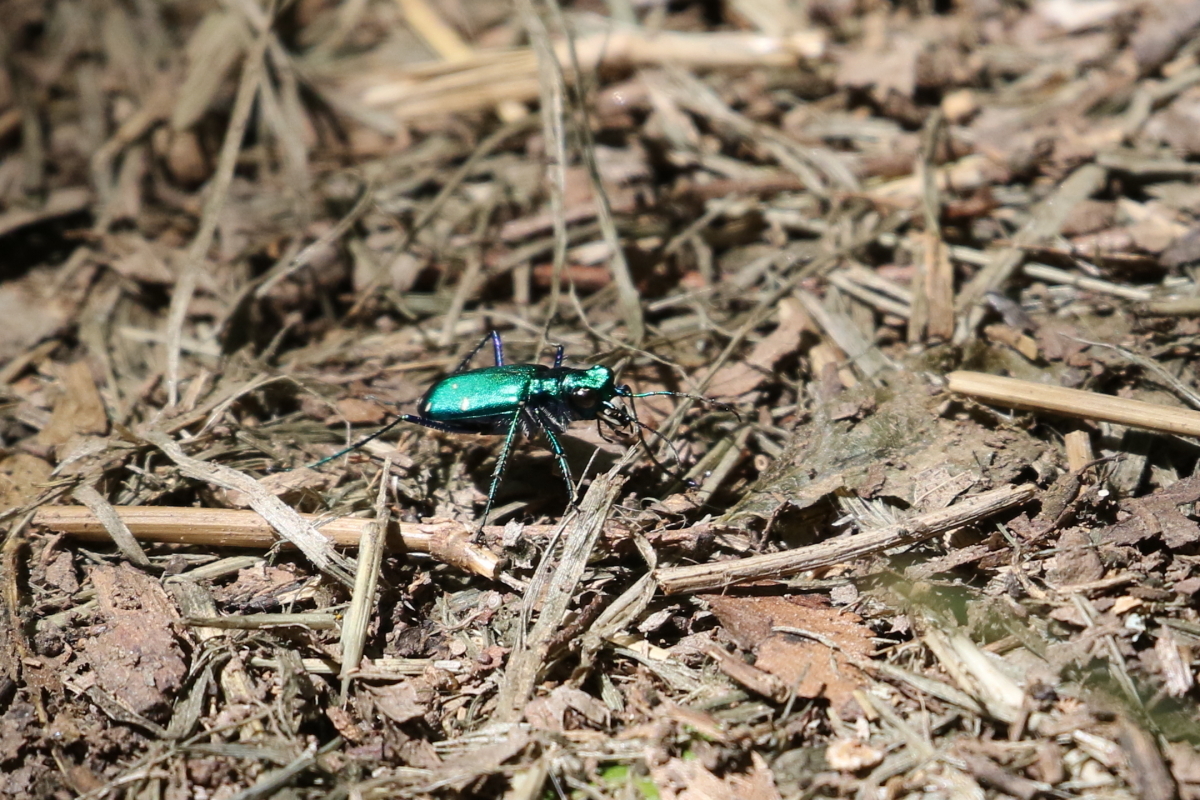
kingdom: Animalia
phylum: Arthropoda
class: Insecta
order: Coleoptera
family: Carabidae
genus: Cicindela
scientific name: Cicindela sexguttata
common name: Six-spotted tiger beetle
